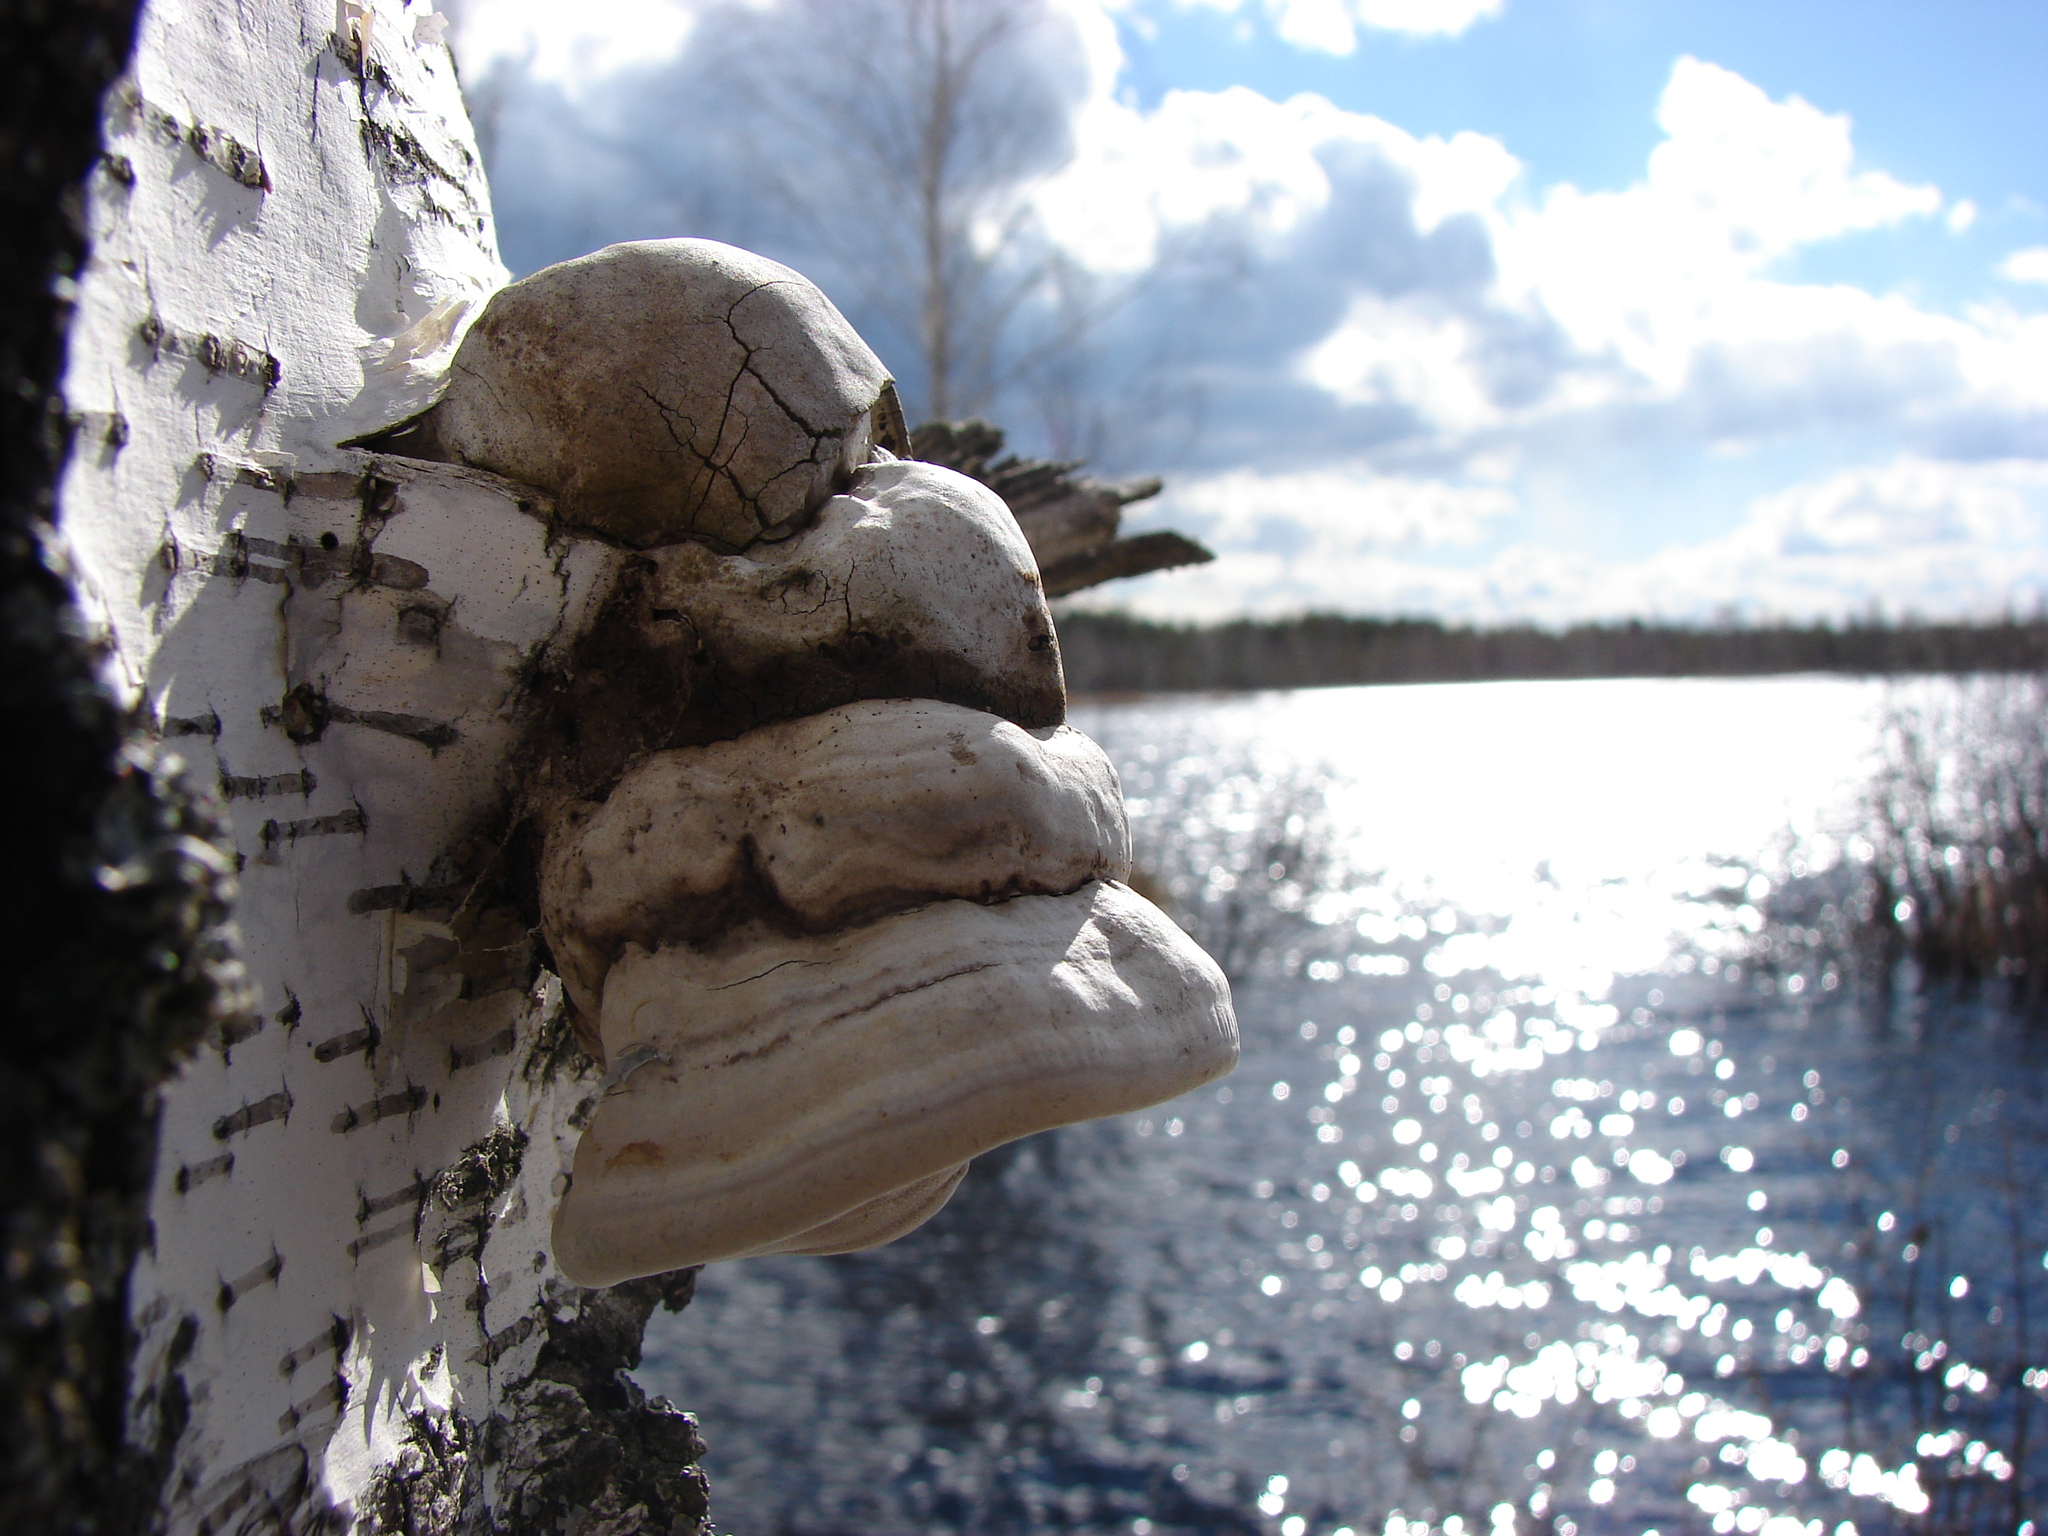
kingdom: Fungi
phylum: Basidiomycota
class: Agaricomycetes
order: Polyporales
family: Polyporaceae
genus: Fomes
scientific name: Fomes fomentarius
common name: Hoof fungus
